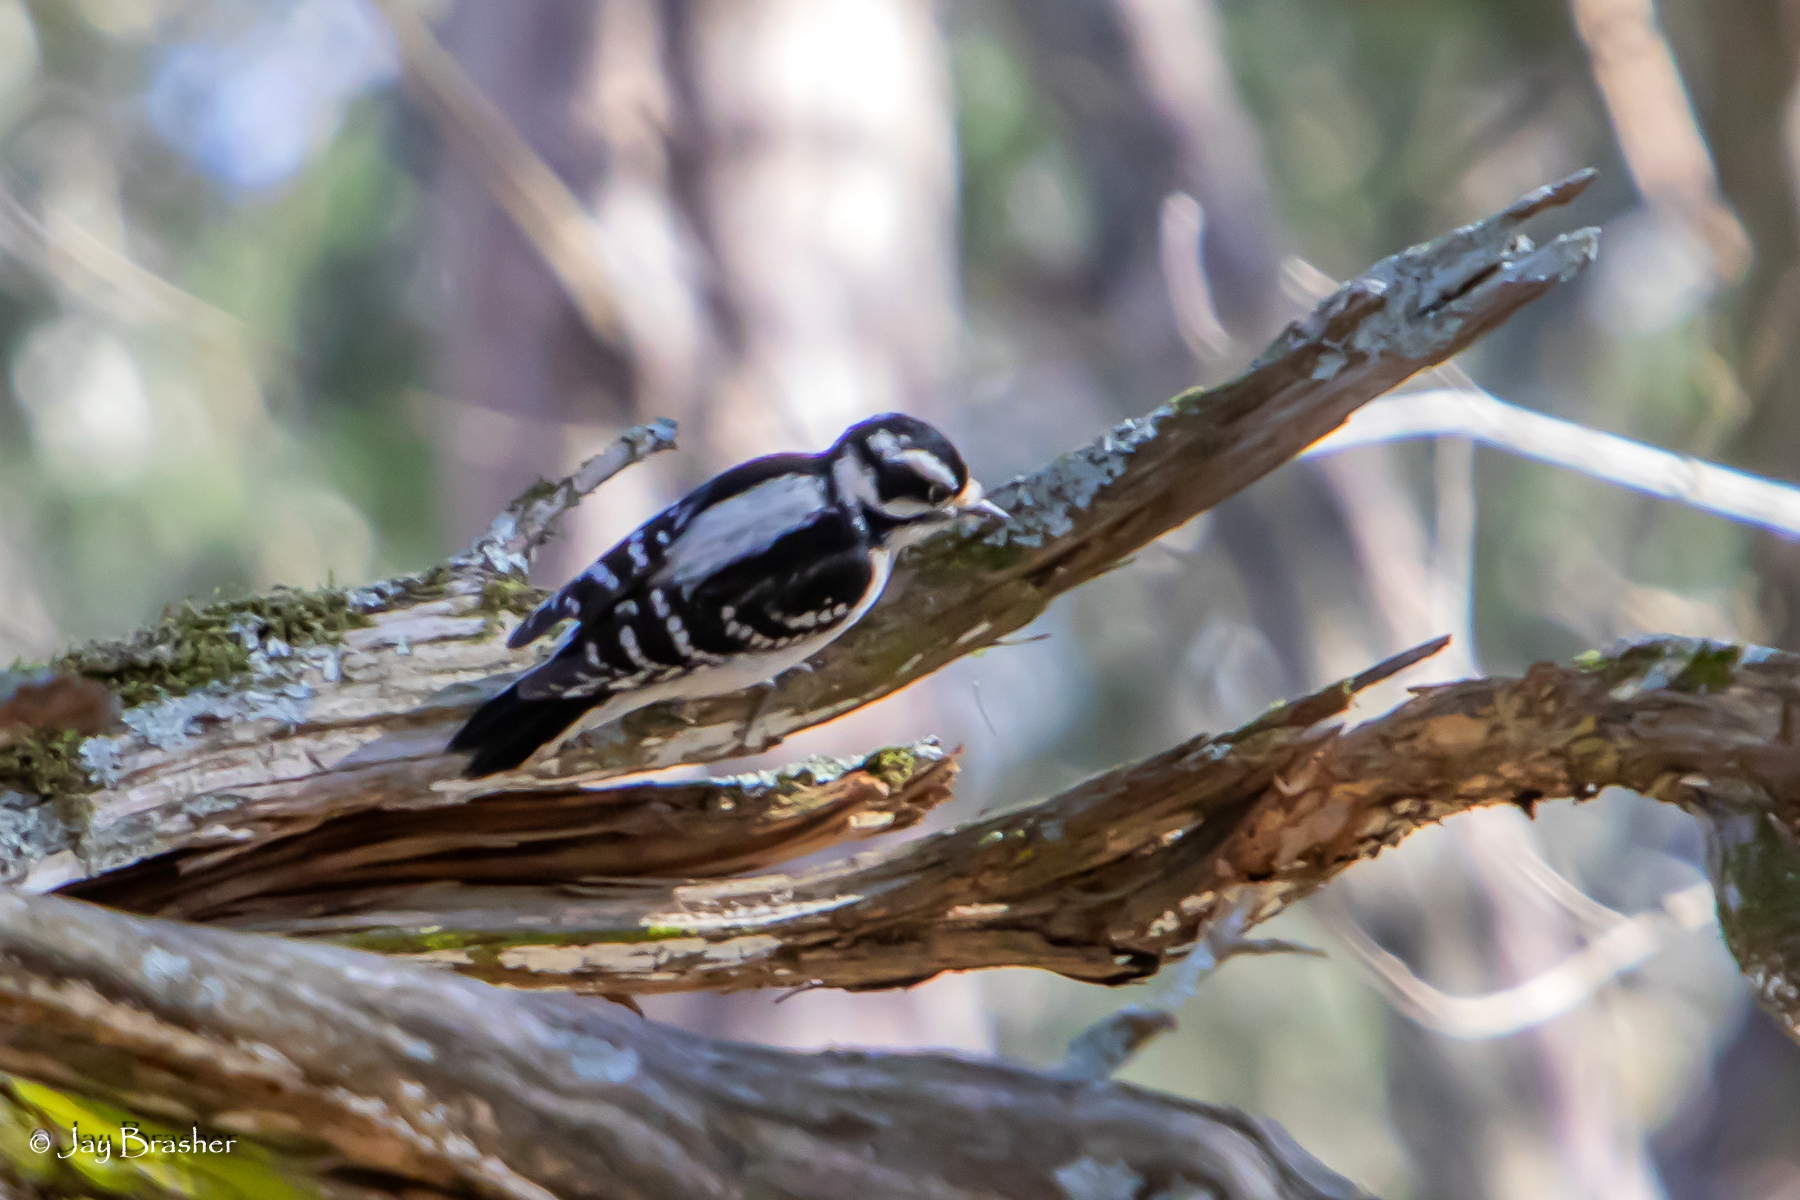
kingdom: Animalia
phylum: Chordata
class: Aves
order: Piciformes
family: Picidae
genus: Dryobates
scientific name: Dryobates pubescens
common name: Downy woodpecker
